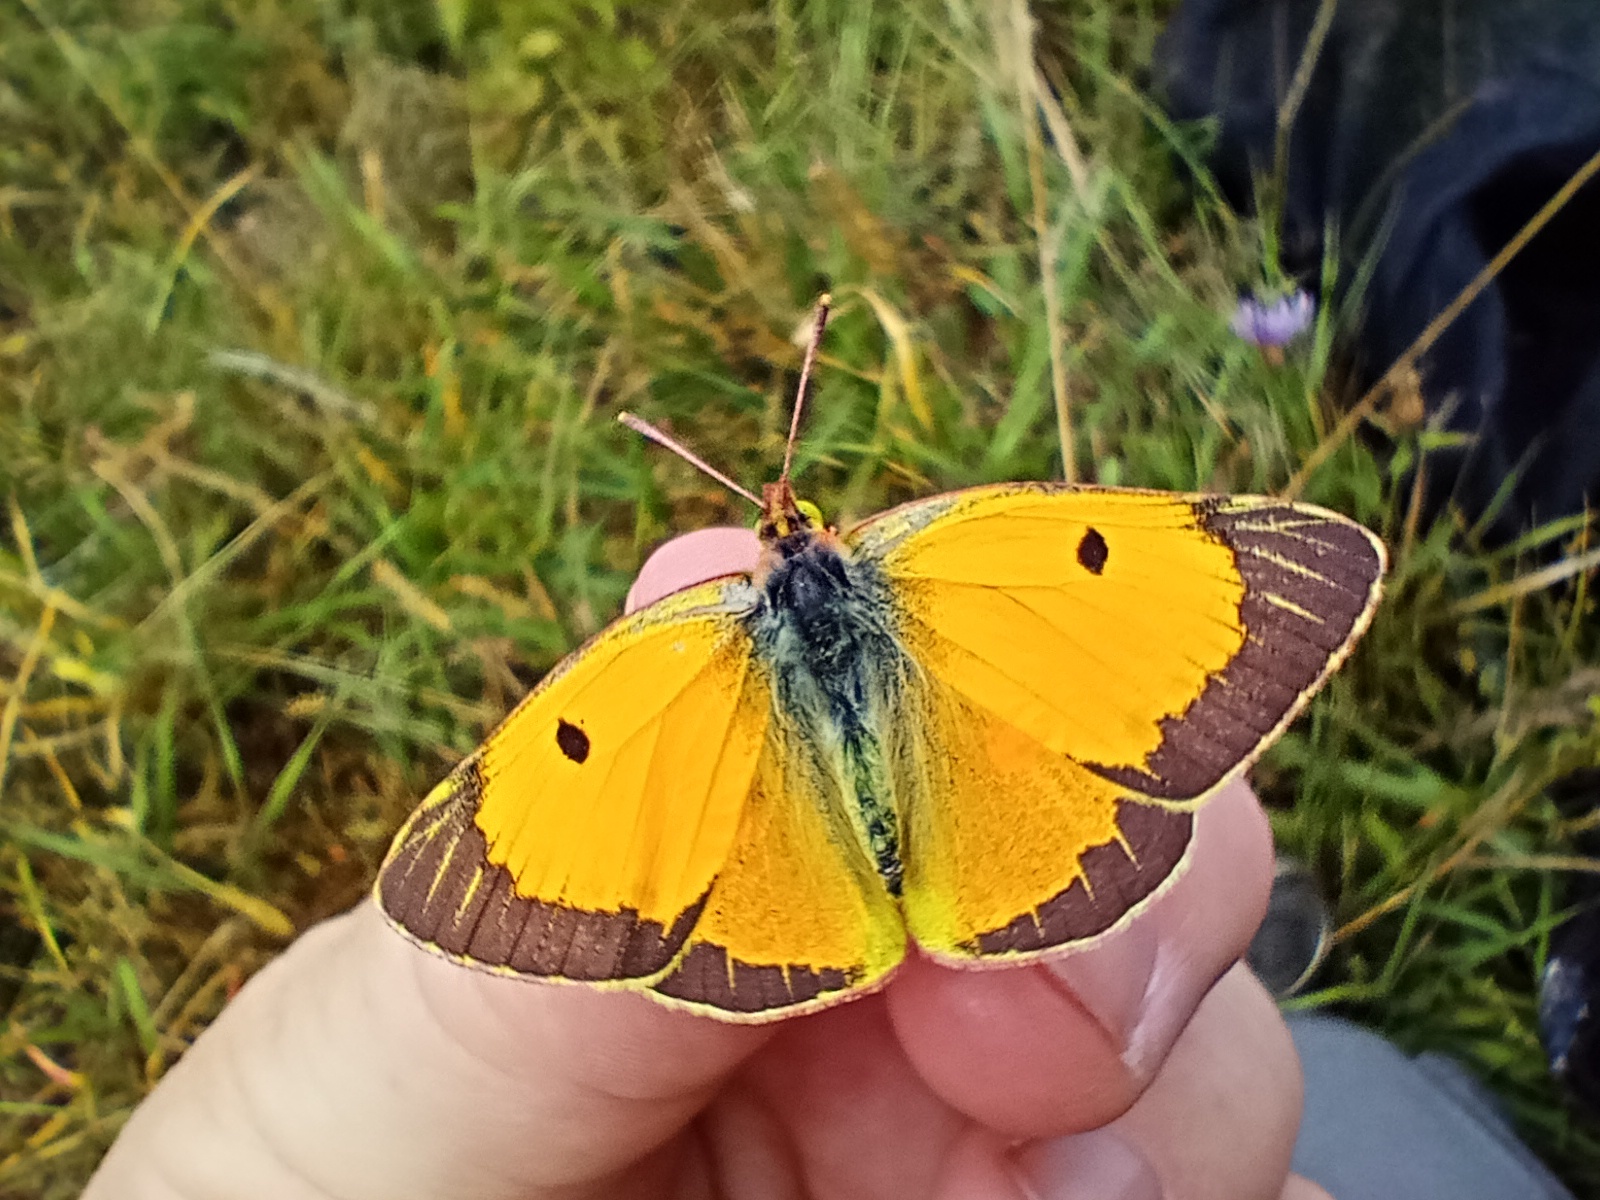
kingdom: Animalia
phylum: Arthropoda
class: Insecta
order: Lepidoptera
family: Pieridae
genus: Colias
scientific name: Colias croceus
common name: Clouded yellow
